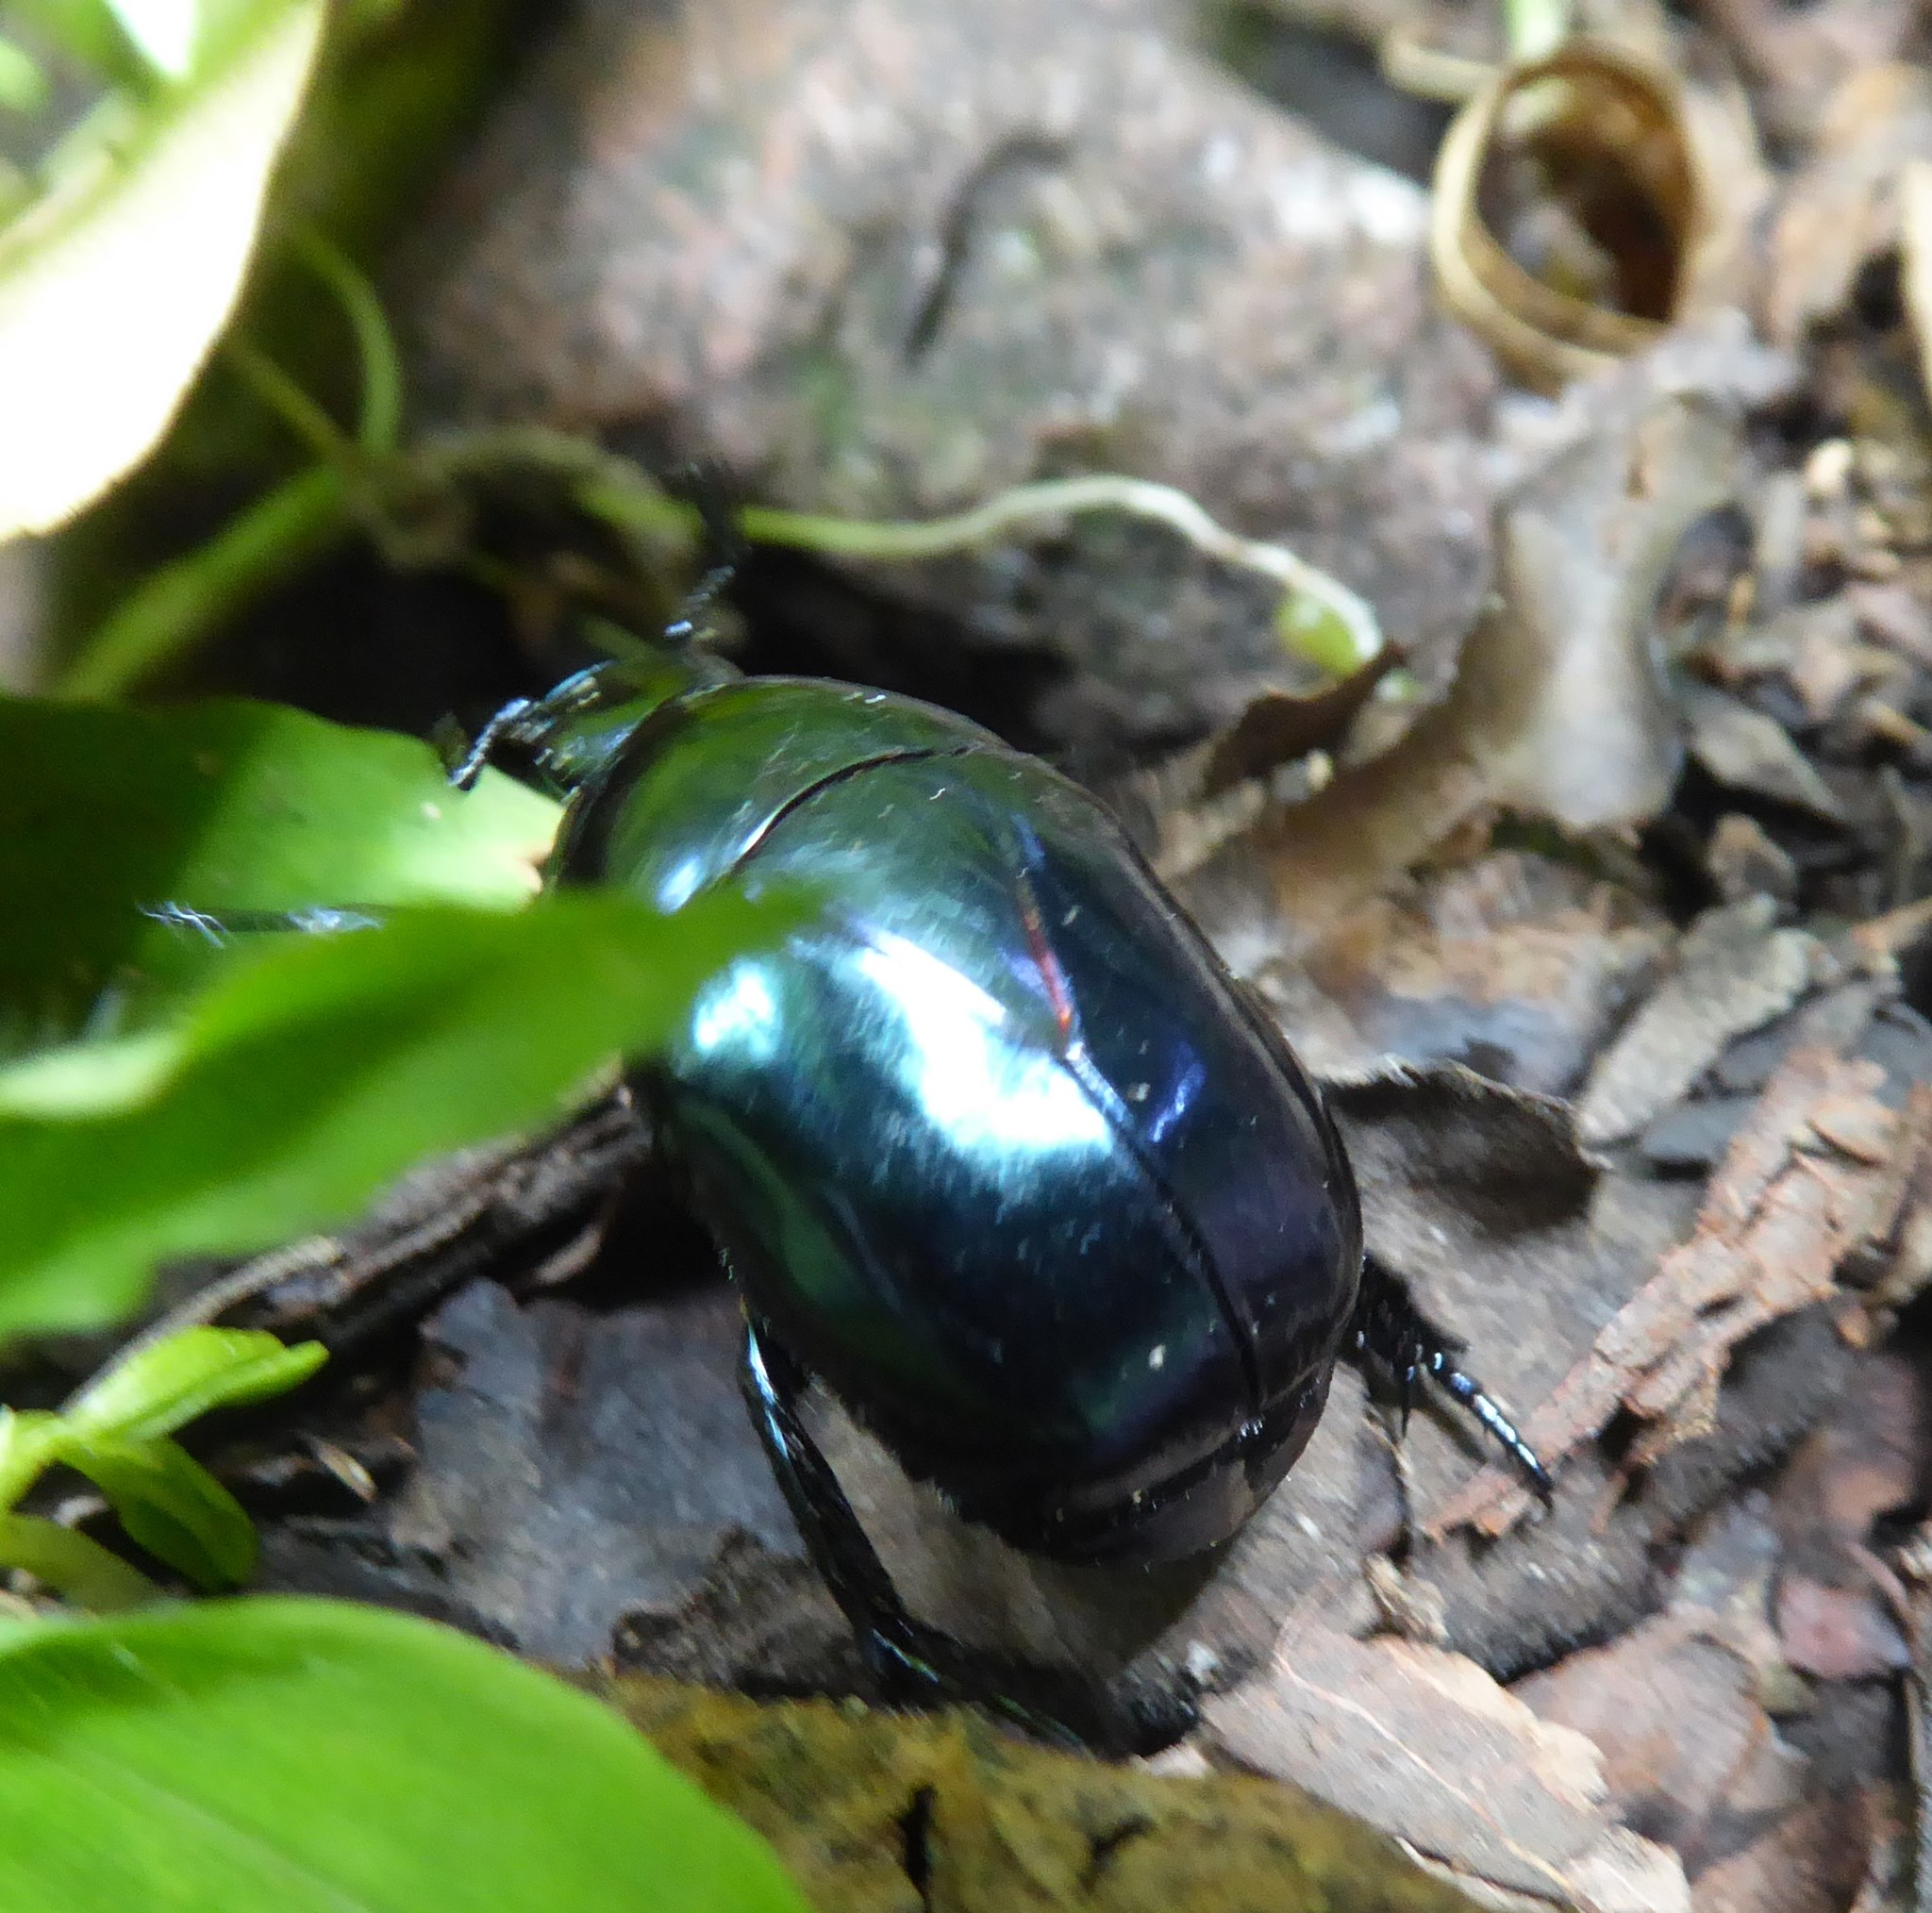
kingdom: Animalia
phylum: Arthropoda
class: Insecta
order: Coleoptera
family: Scarabaeidae
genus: Macraspis
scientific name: Macraspis rufonitida
